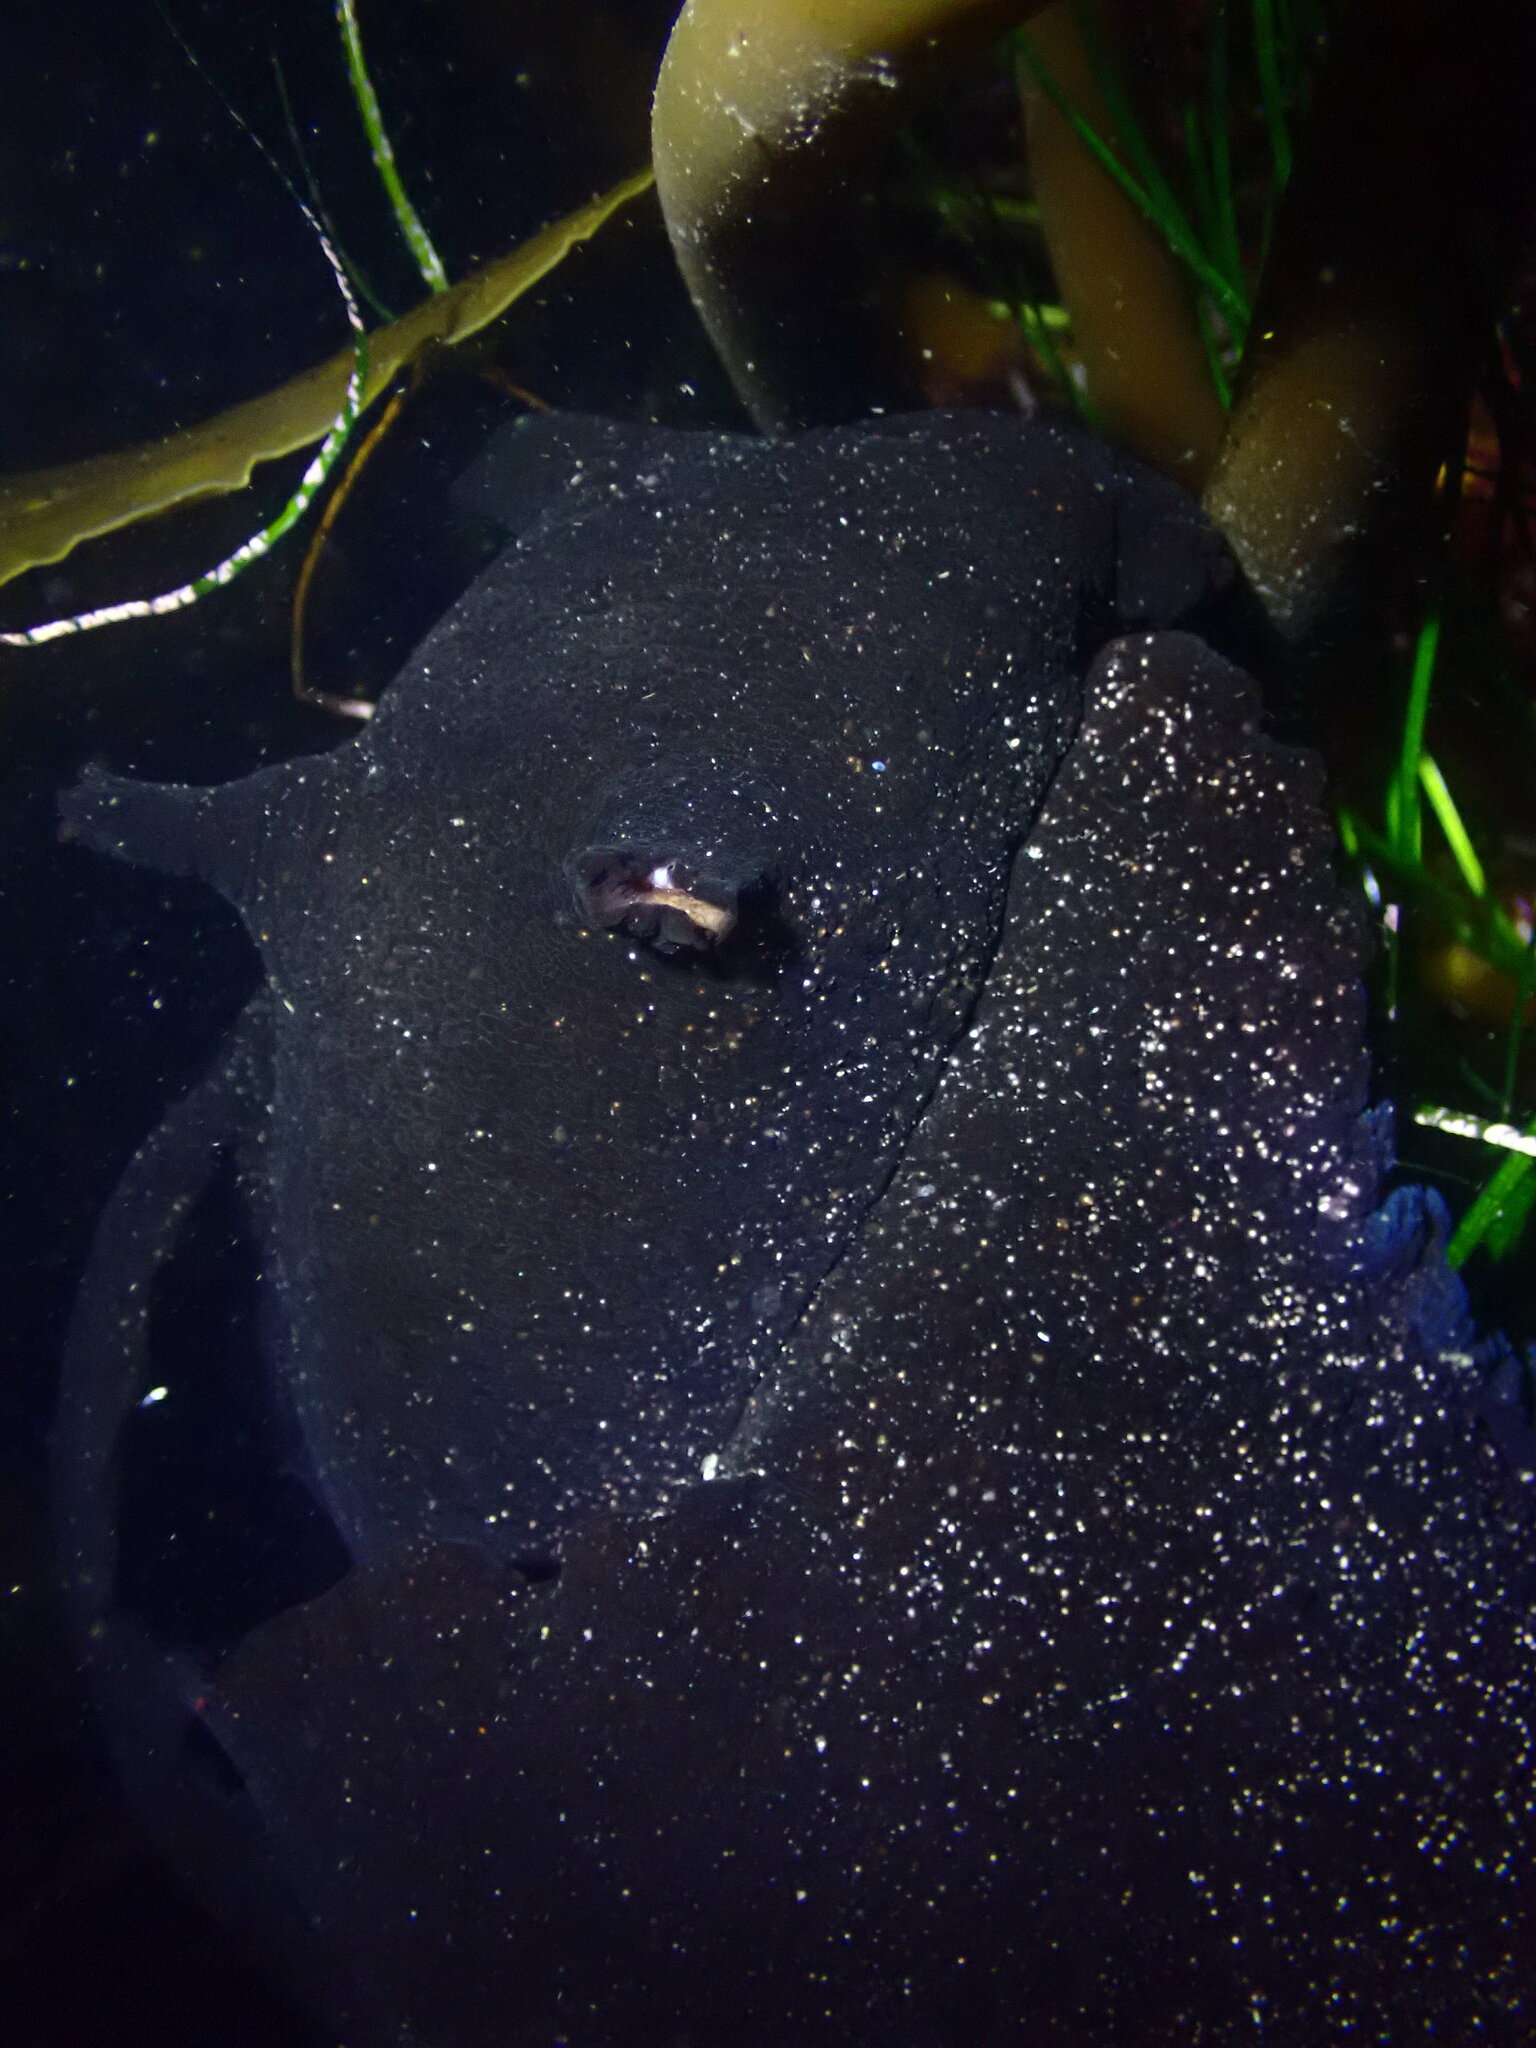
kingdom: Animalia
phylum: Mollusca
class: Gastropoda
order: Aplysiida
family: Aplysiidae
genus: Aplysia
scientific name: Aplysia vaccaria
